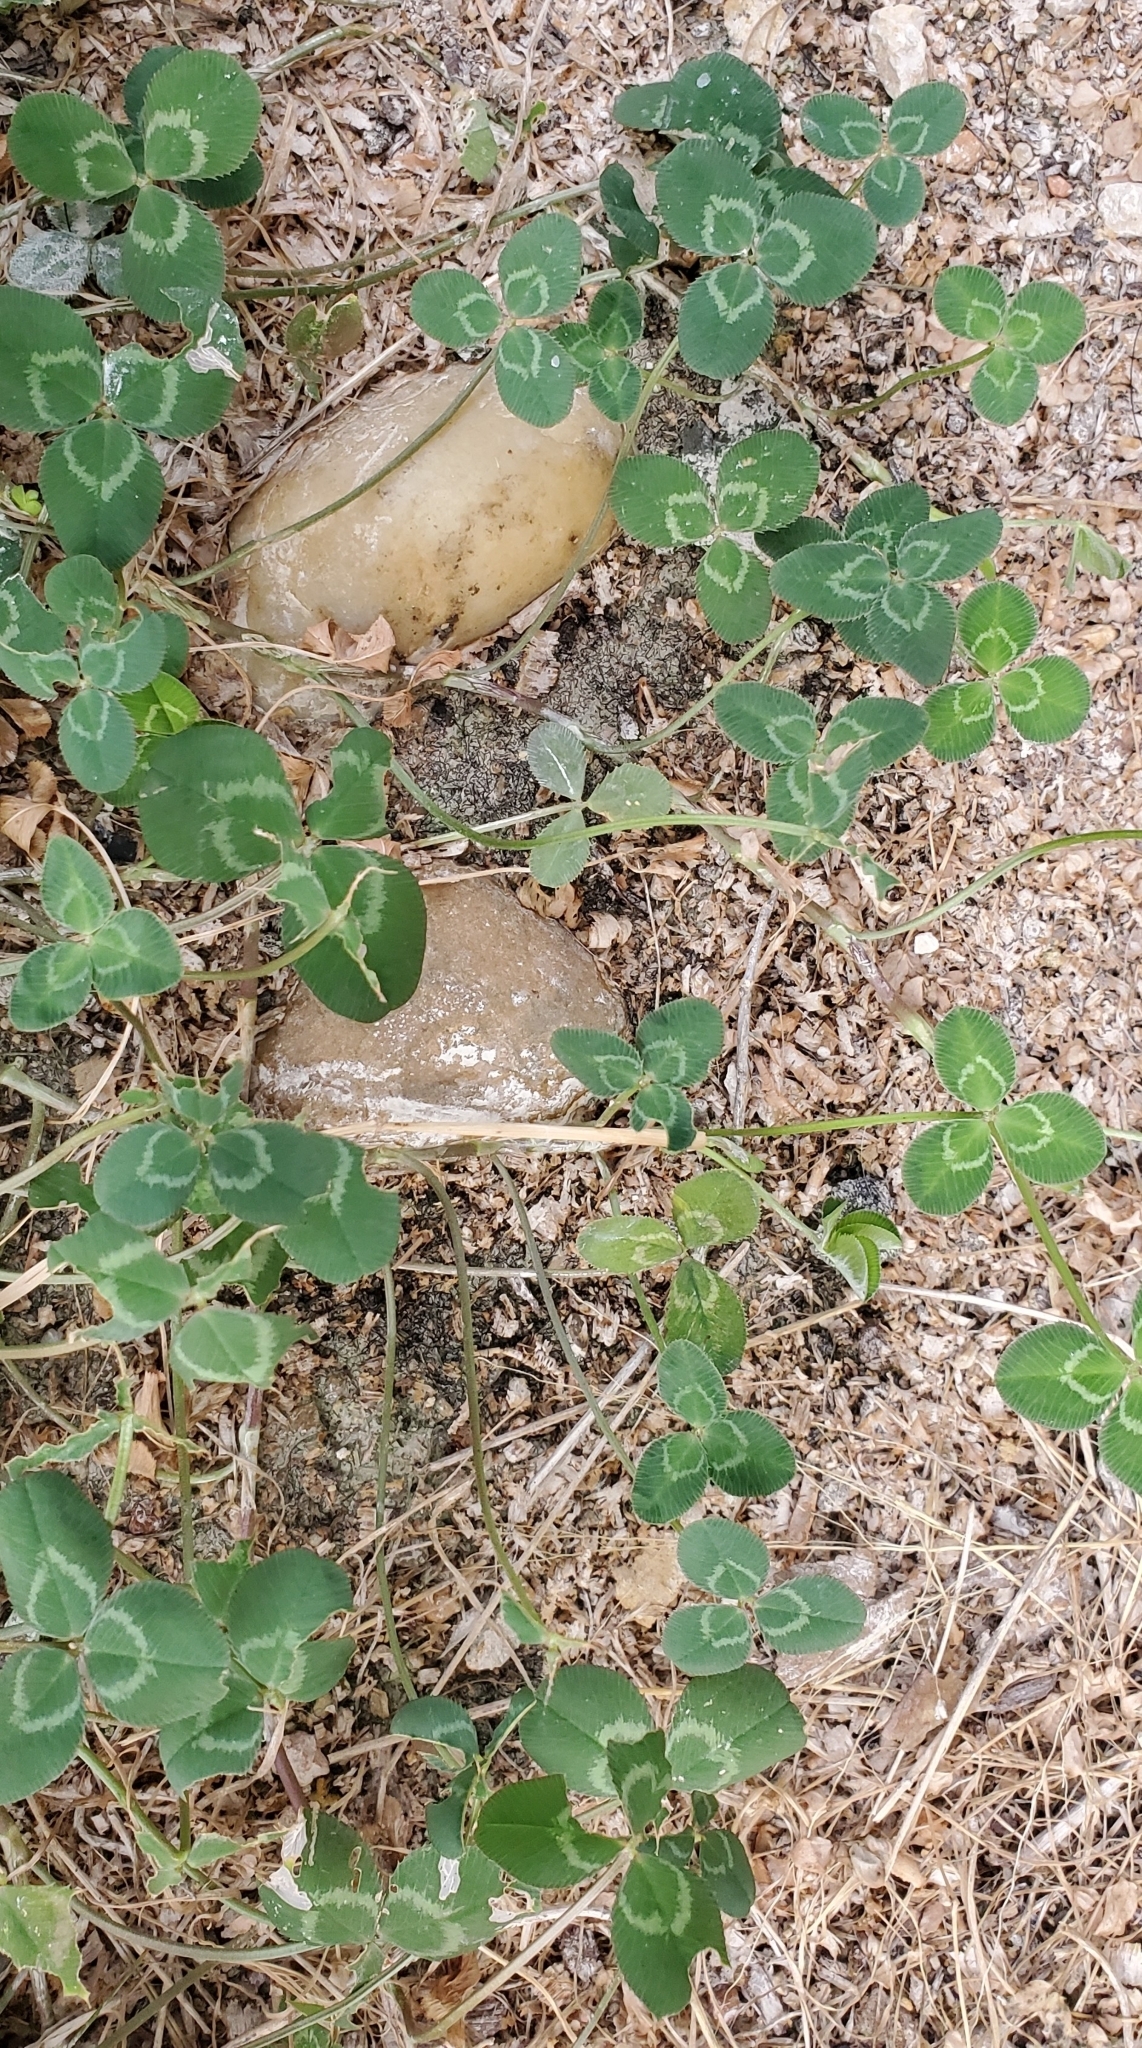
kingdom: Plantae
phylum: Tracheophyta
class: Magnoliopsida
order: Fabales
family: Fabaceae
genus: Trifolium
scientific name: Trifolium repens
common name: White clover
